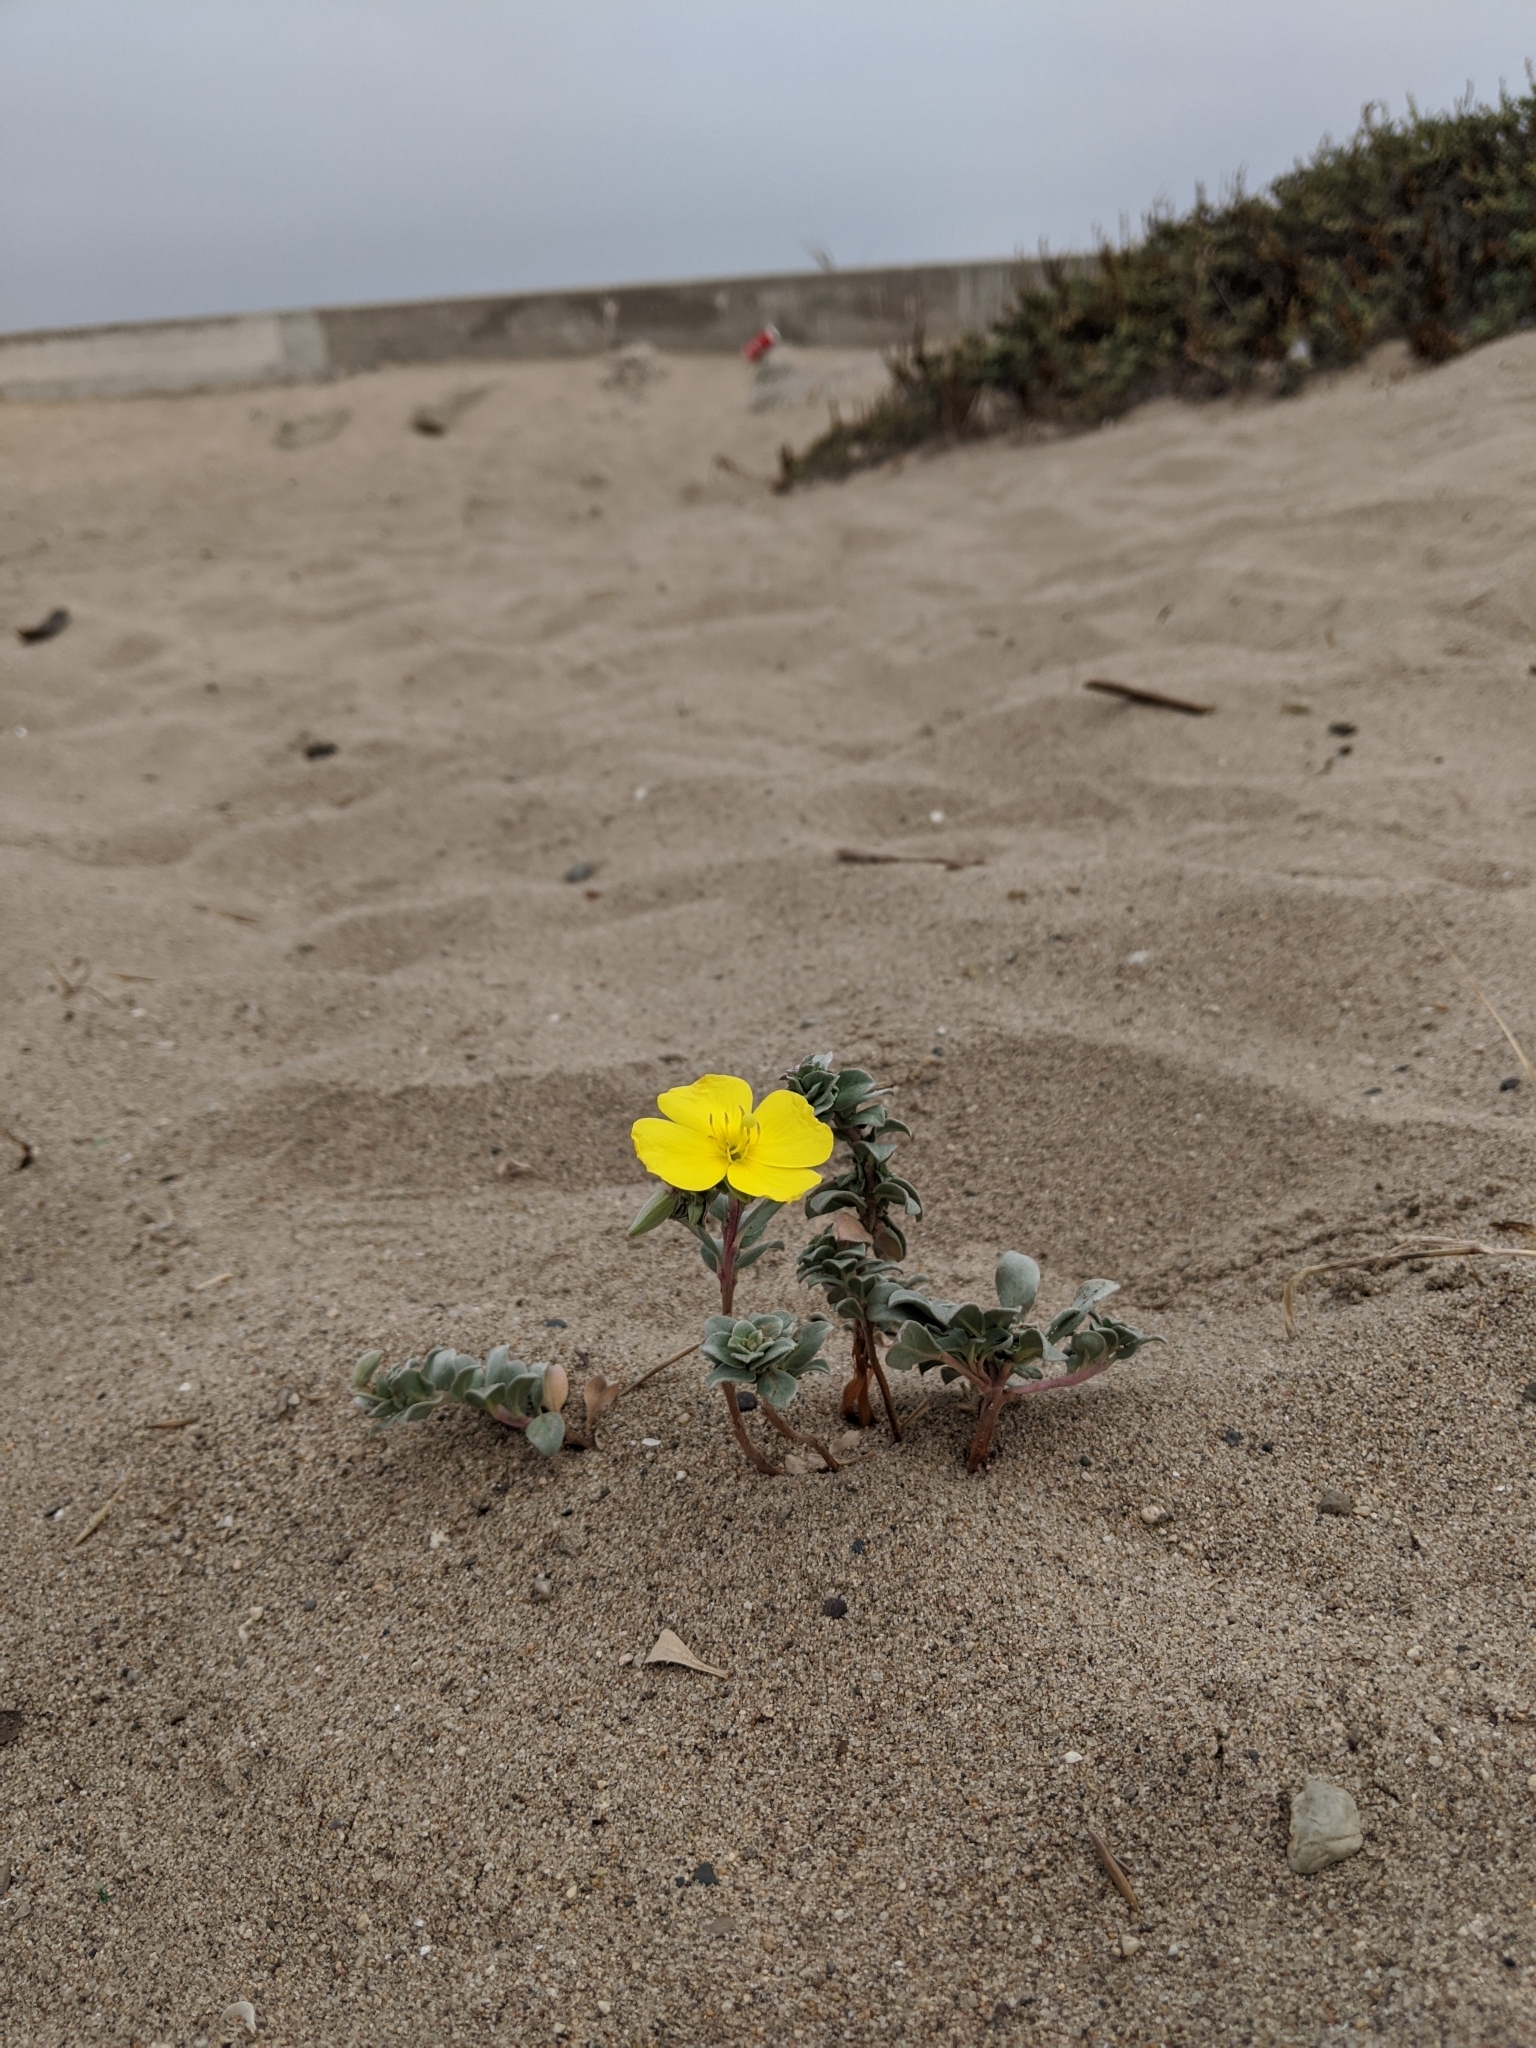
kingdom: Plantae
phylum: Tracheophyta
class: Magnoliopsida
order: Myrtales
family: Onagraceae
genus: Camissoniopsis
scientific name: Camissoniopsis cheiranthifolia
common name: Beach suncup
